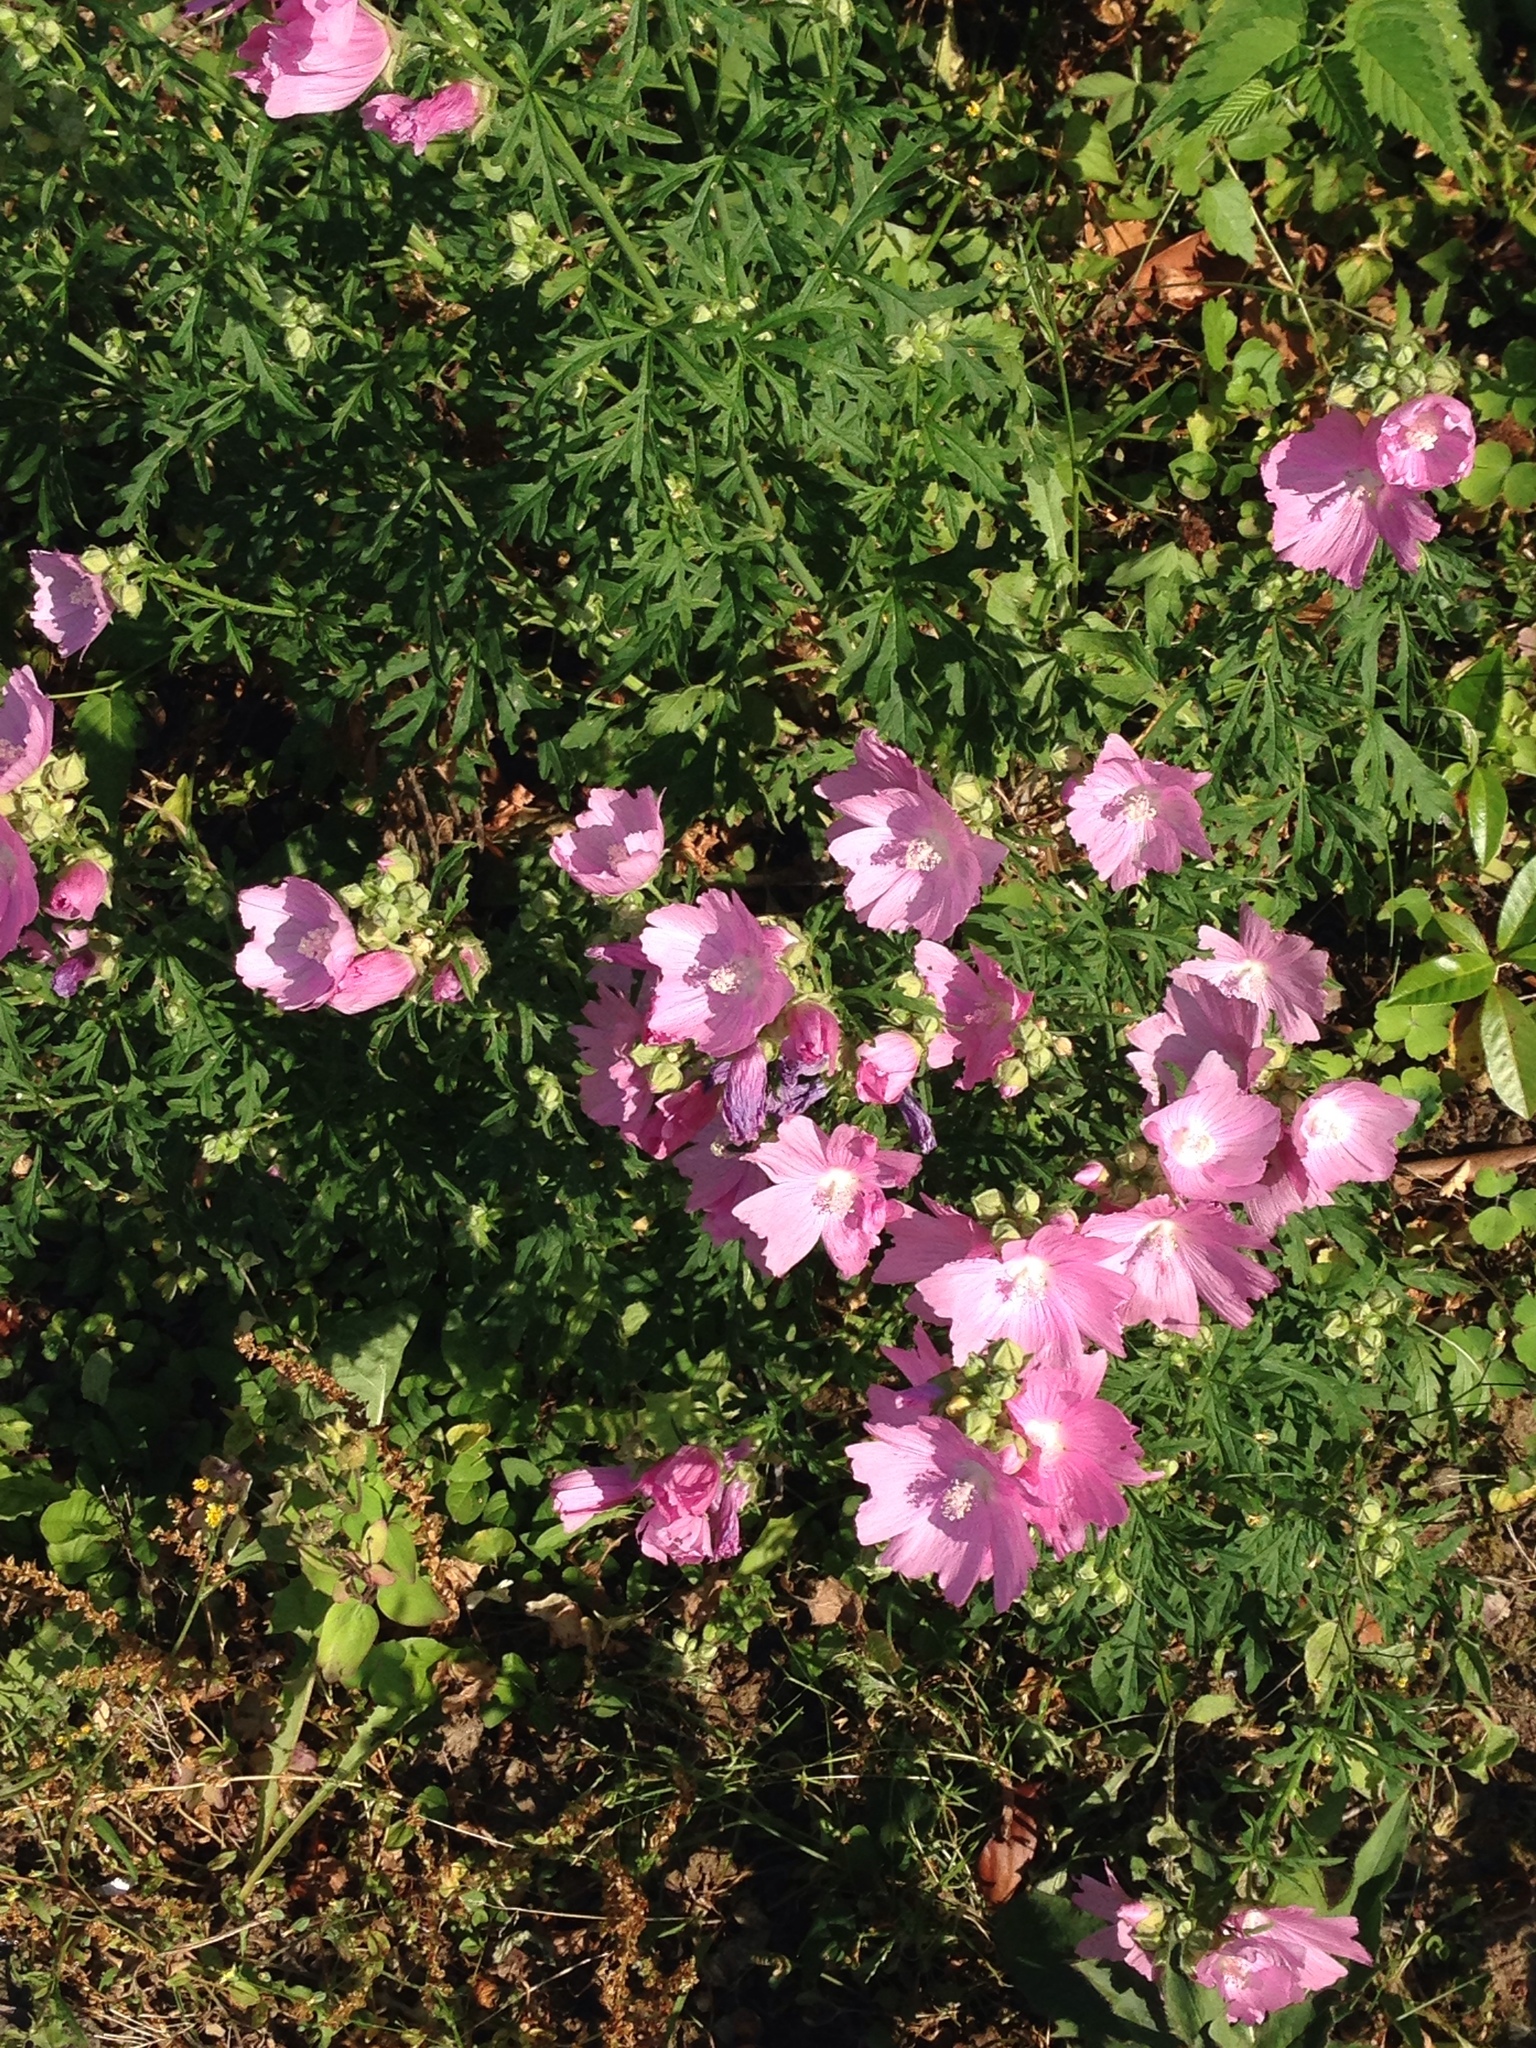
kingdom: Plantae
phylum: Tracheophyta
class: Magnoliopsida
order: Malvales
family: Malvaceae
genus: Malva
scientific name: Malva alcea
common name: Greater musk-mallow
